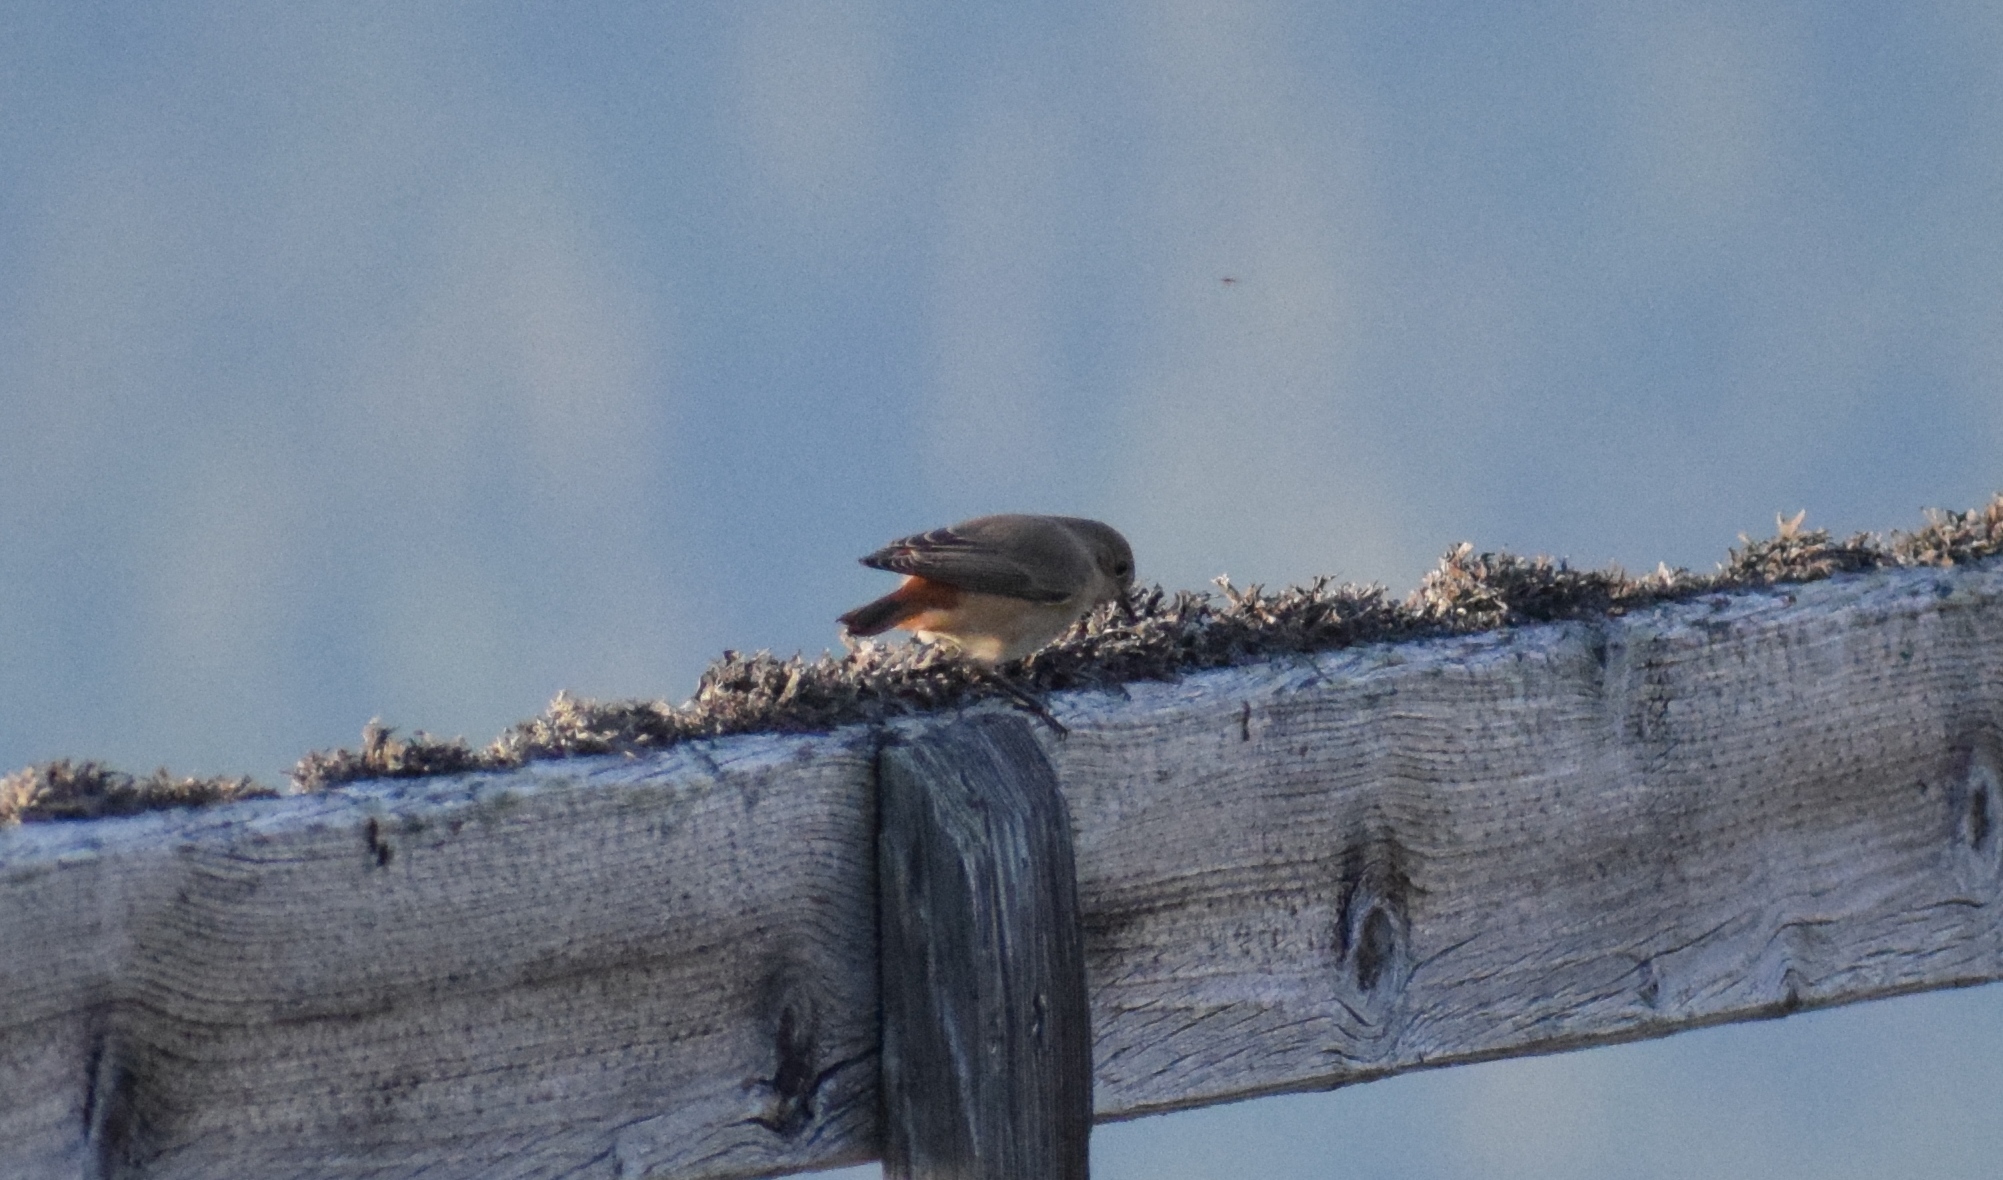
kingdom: Animalia
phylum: Chordata
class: Aves
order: Passeriformes
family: Muscicapidae
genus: Phoenicurus
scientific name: Phoenicurus ochruros
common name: Black redstart
